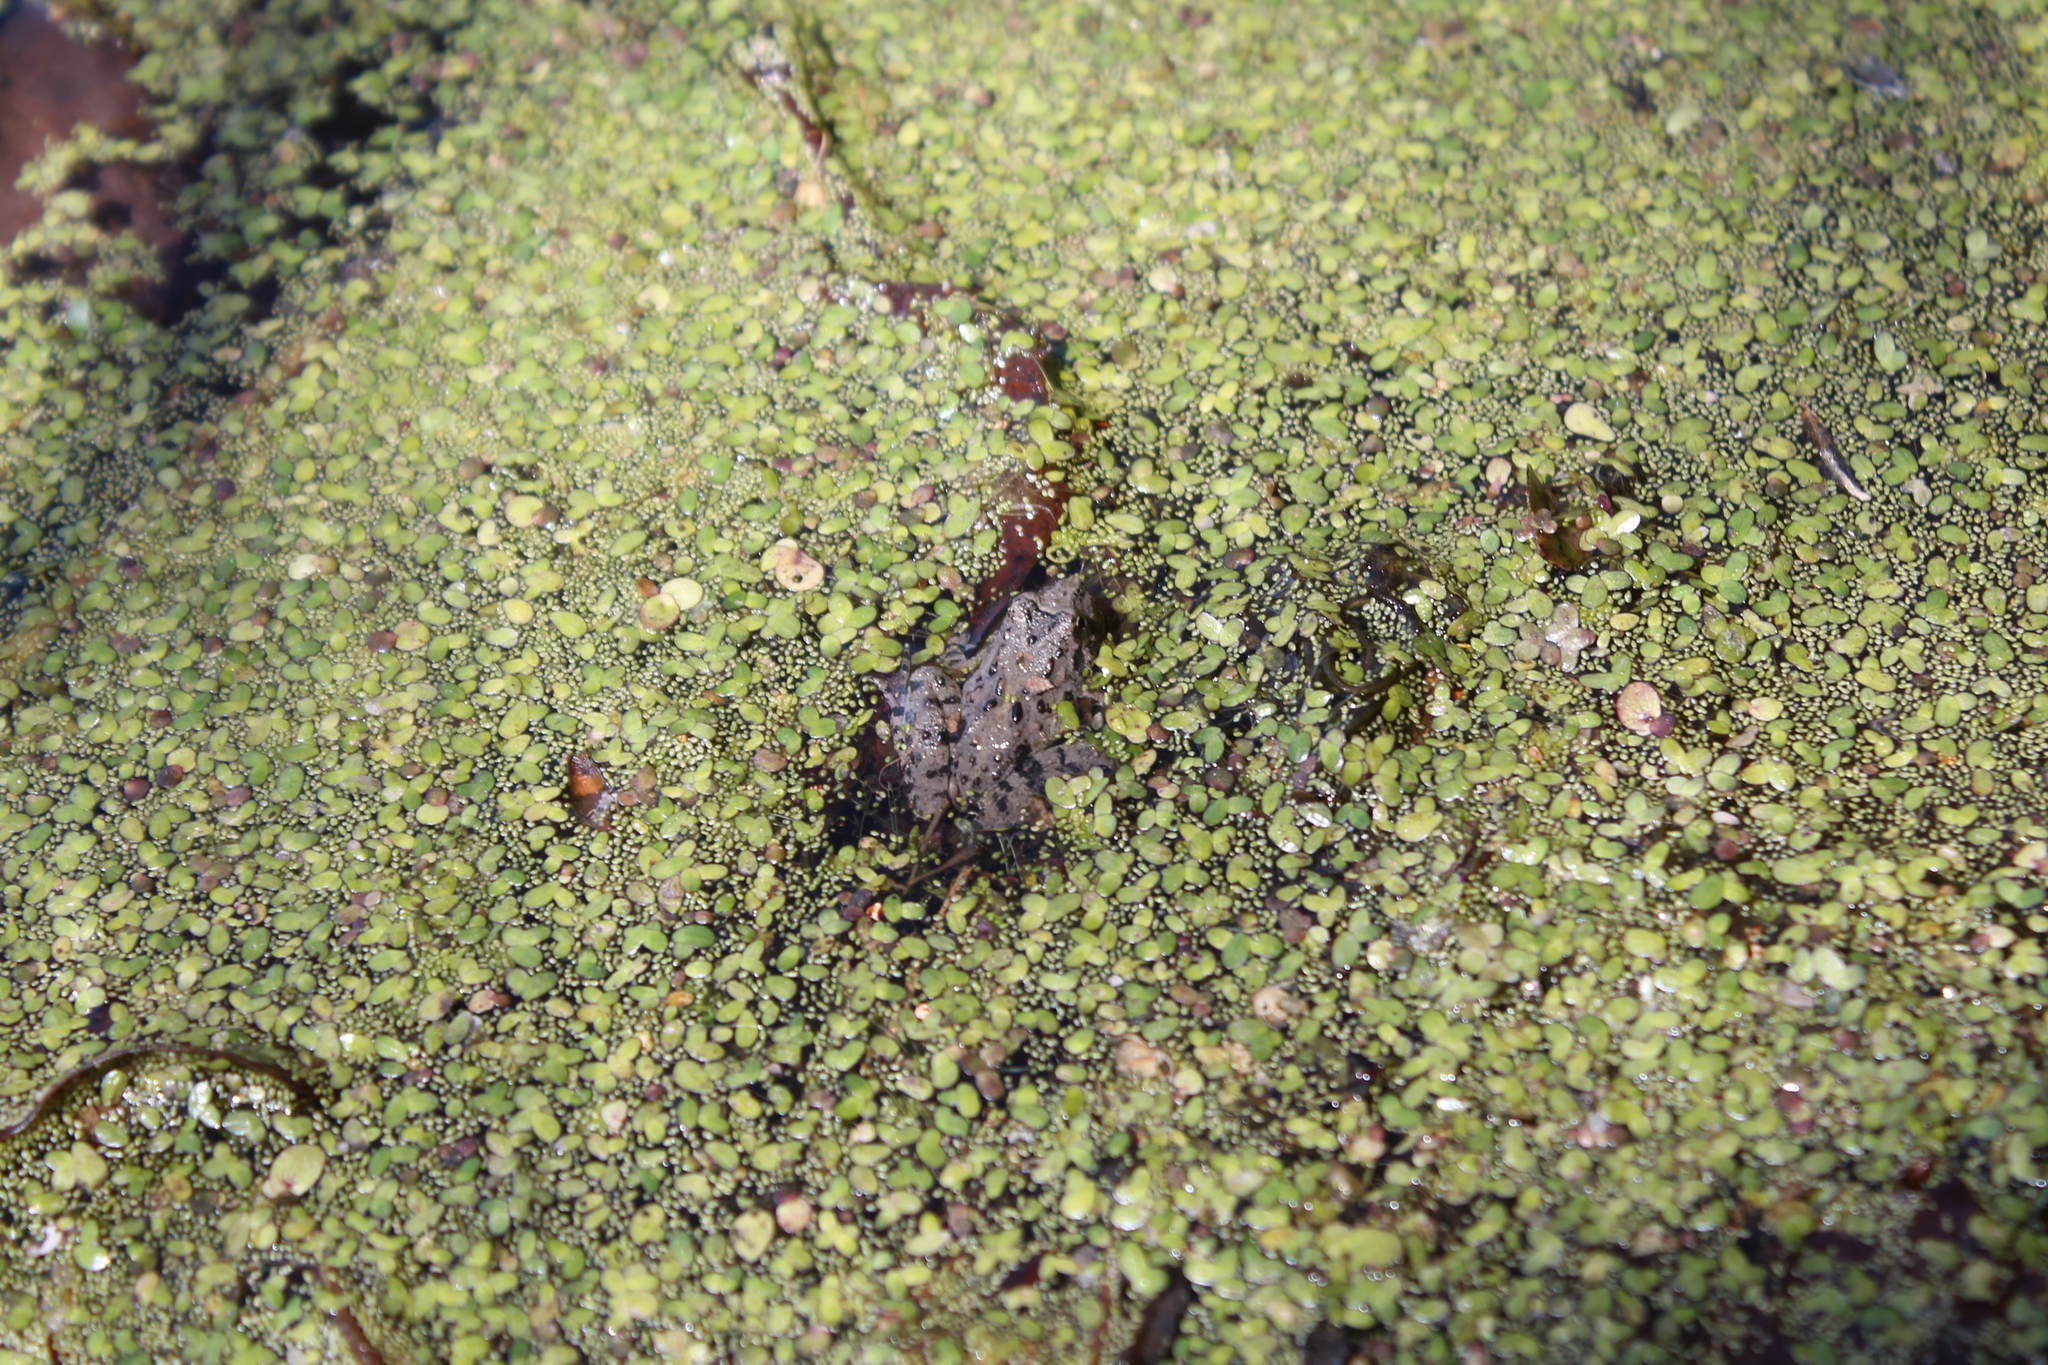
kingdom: Animalia
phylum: Chordata
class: Amphibia
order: Anura
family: Hylidae
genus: Acris
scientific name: Acris blanchardi
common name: Blanchard's cricket frog
